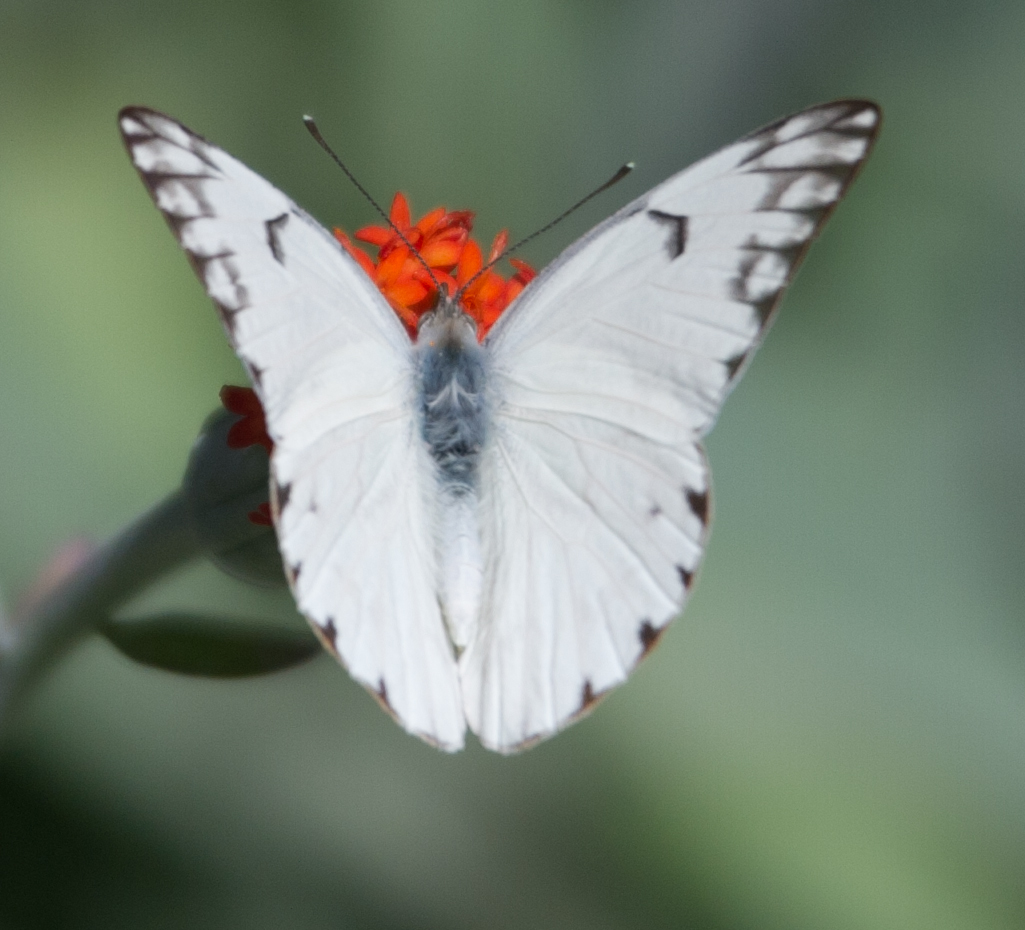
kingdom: Animalia
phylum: Arthropoda
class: Insecta
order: Lepidoptera
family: Pieridae
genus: Belenois
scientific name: Belenois gidica
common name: Pointed caper white
